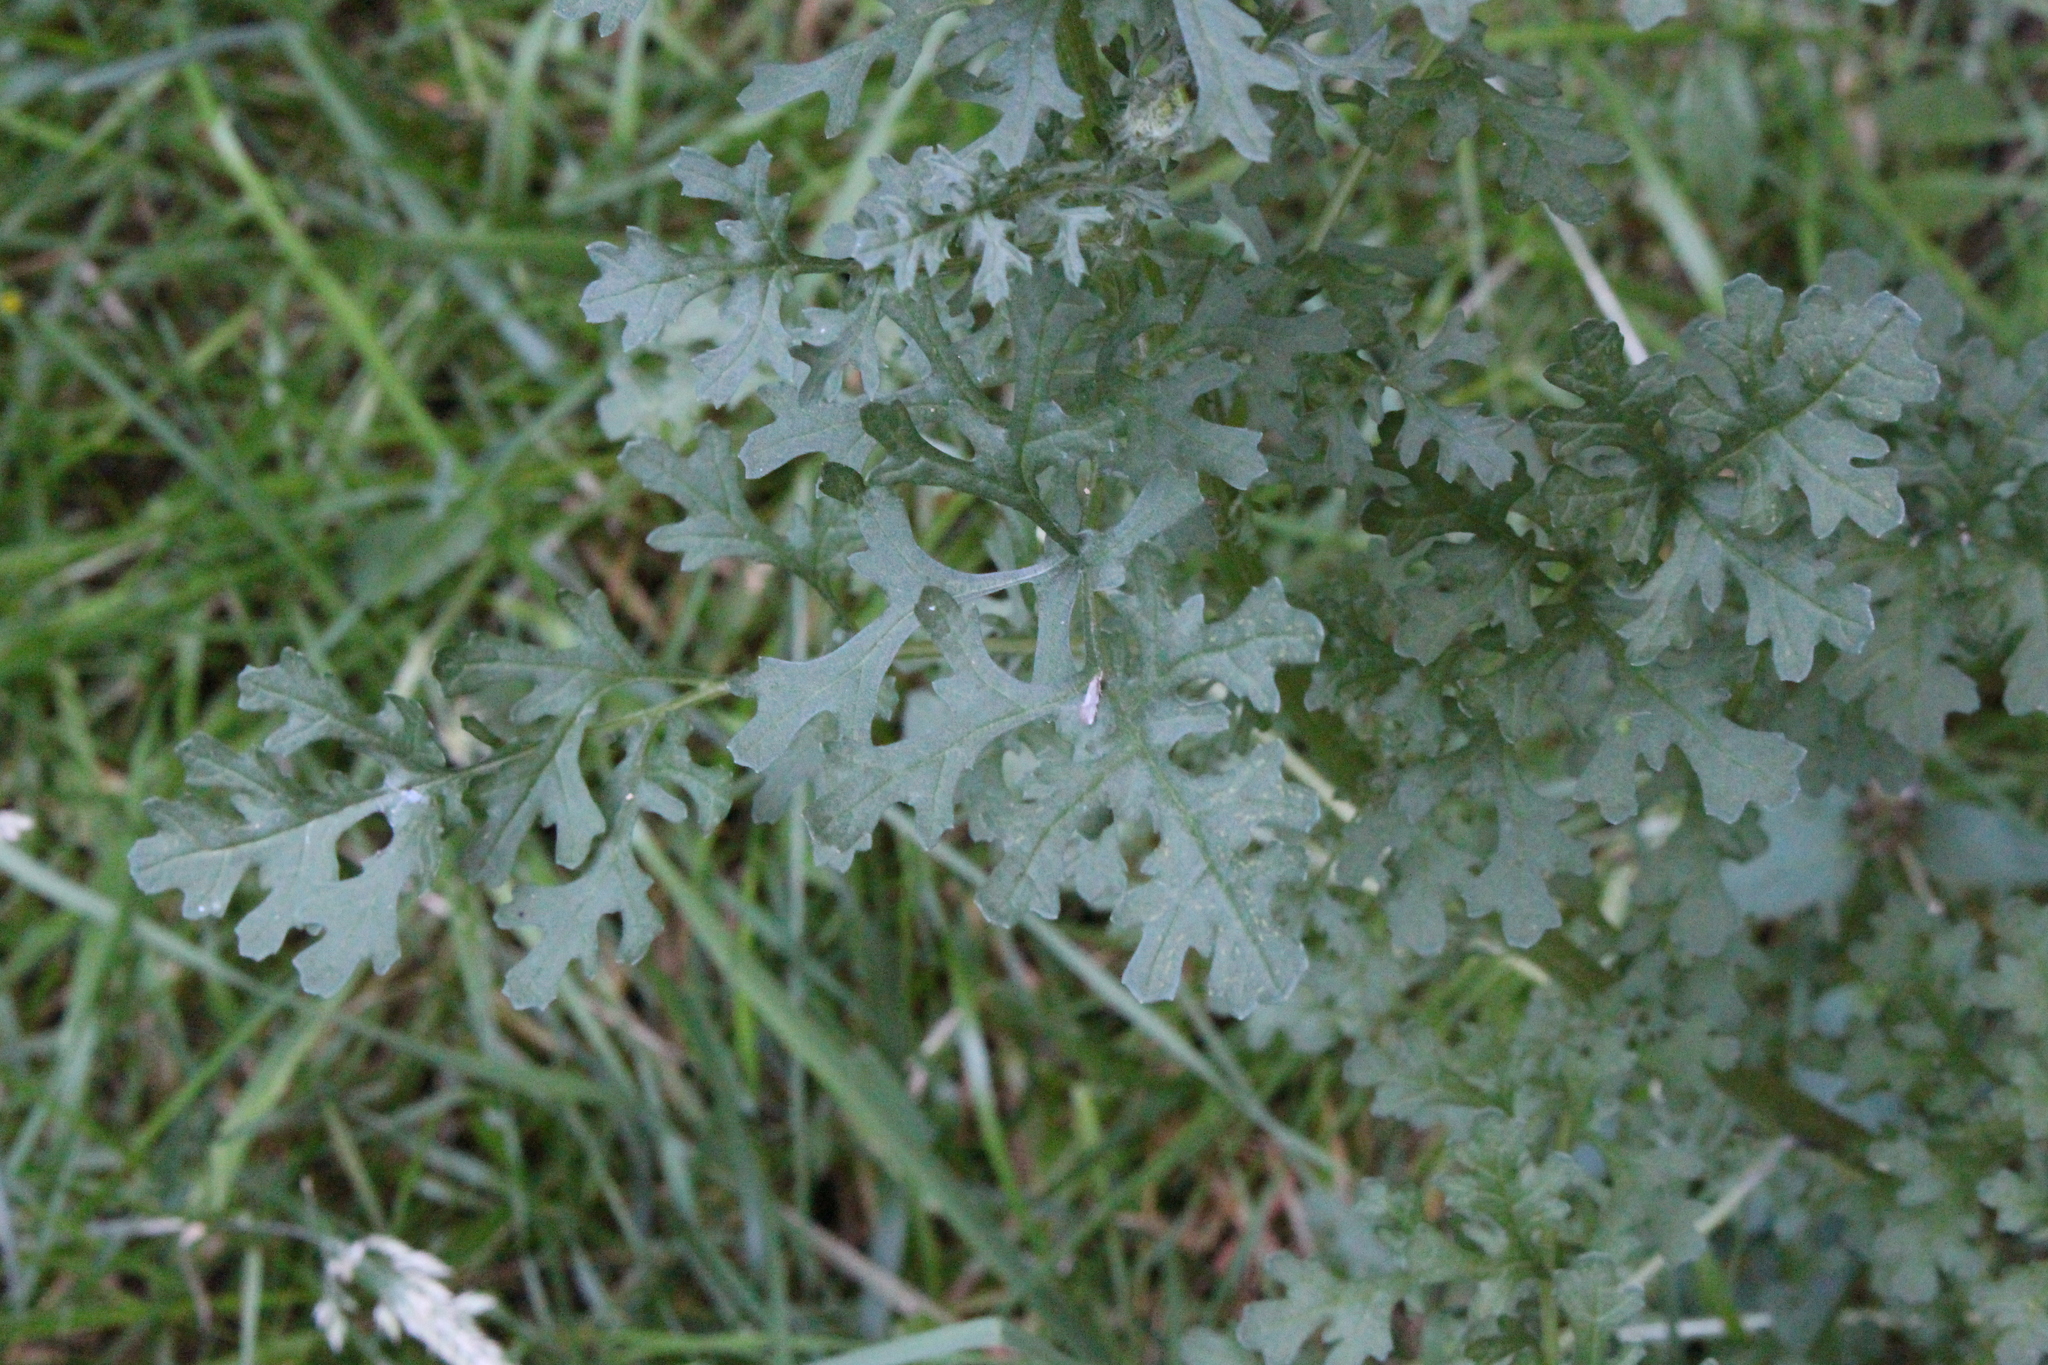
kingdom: Plantae
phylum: Tracheophyta
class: Magnoliopsida
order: Asterales
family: Asteraceae
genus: Jacobaea
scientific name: Jacobaea vulgaris
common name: Stinking willie
